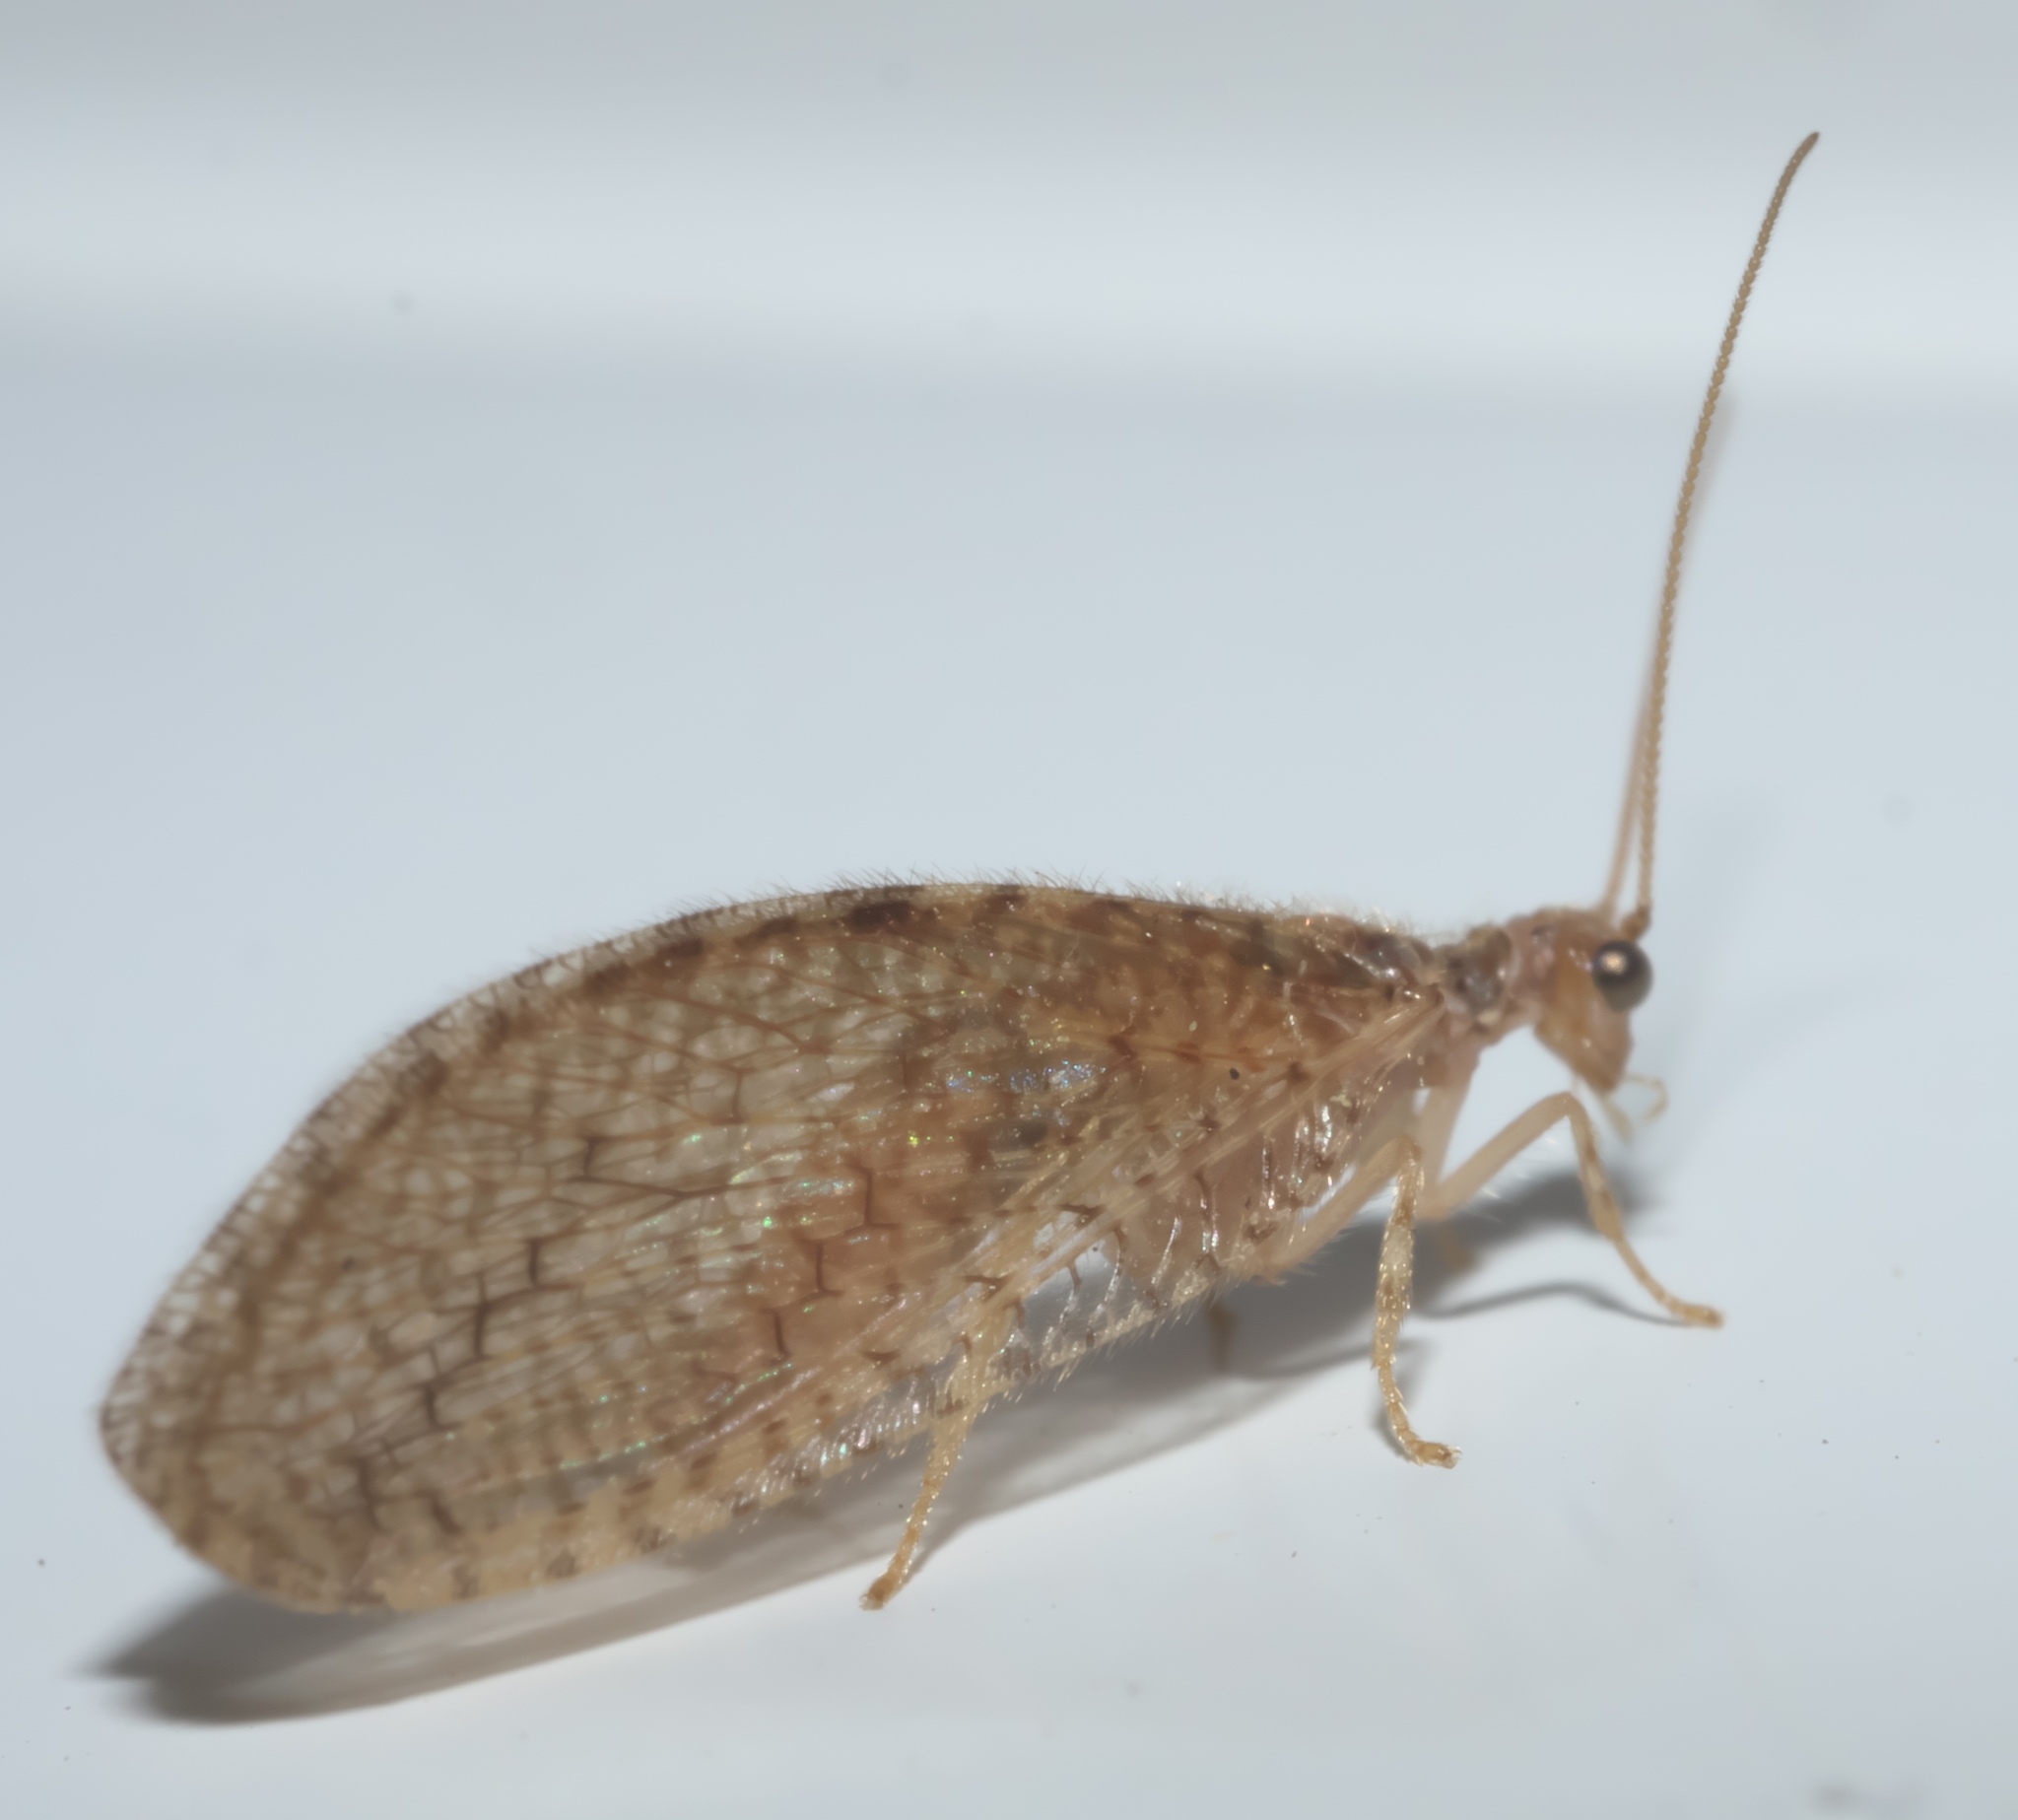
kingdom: Animalia
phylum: Arthropoda
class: Insecta
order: Neuroptera
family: Hemerobiidae
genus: Micromus
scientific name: Micromus posticus
